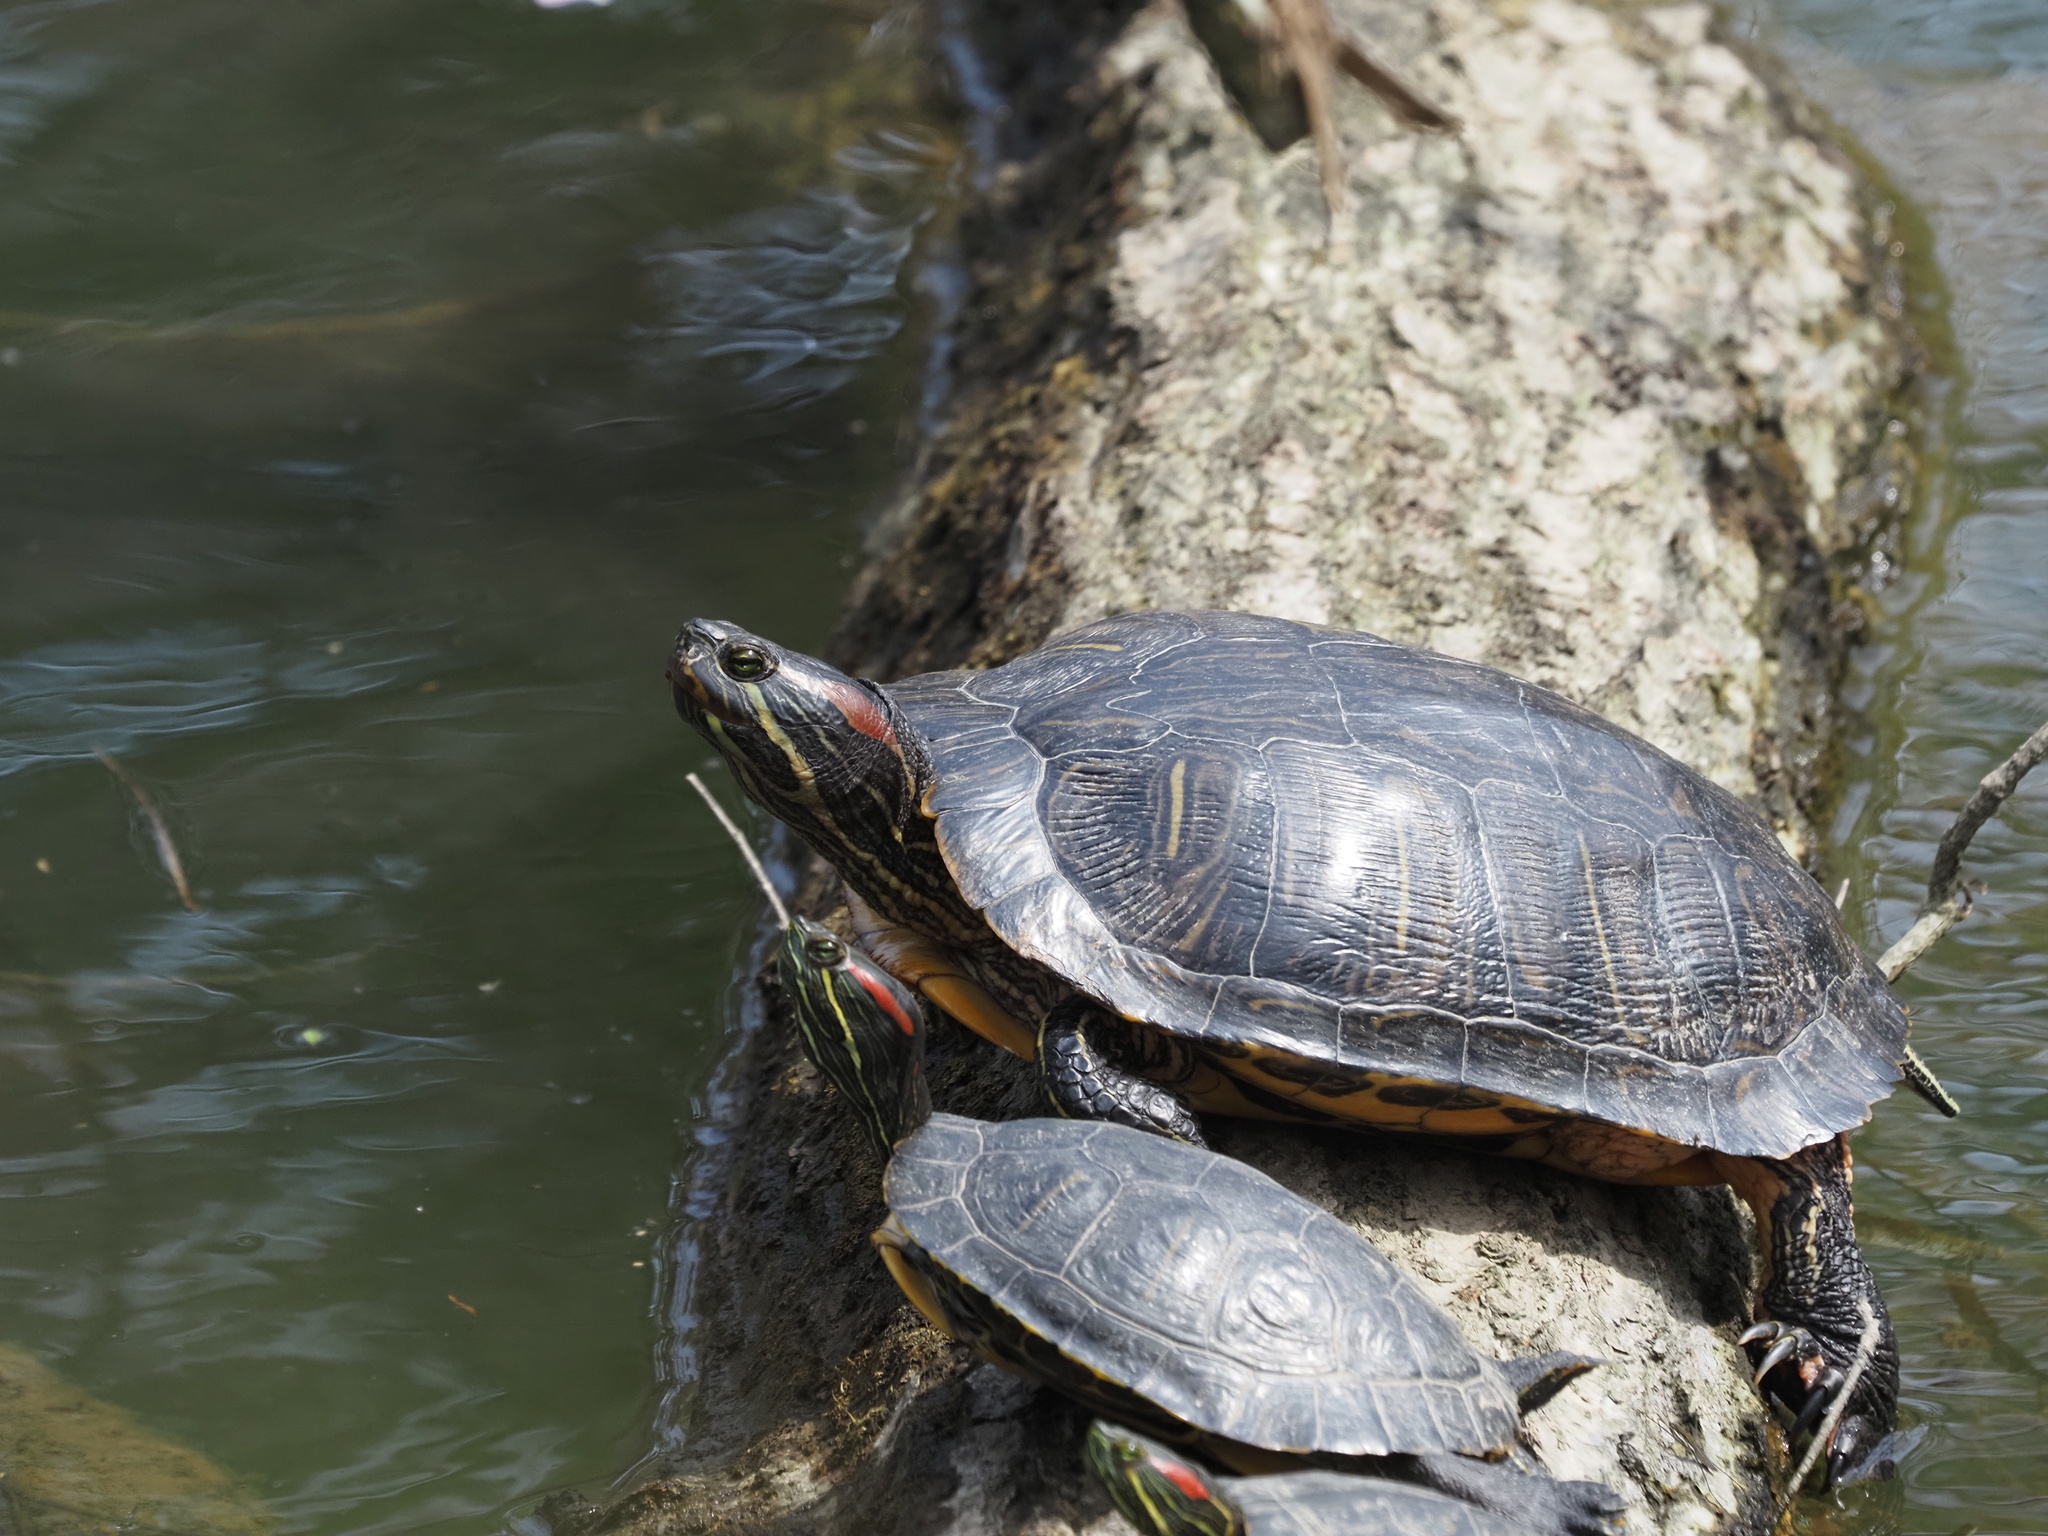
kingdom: Animalia
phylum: Chordata
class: Testudines
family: Emydidae
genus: Trachemys
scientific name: Trachemys scripta
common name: Slider
